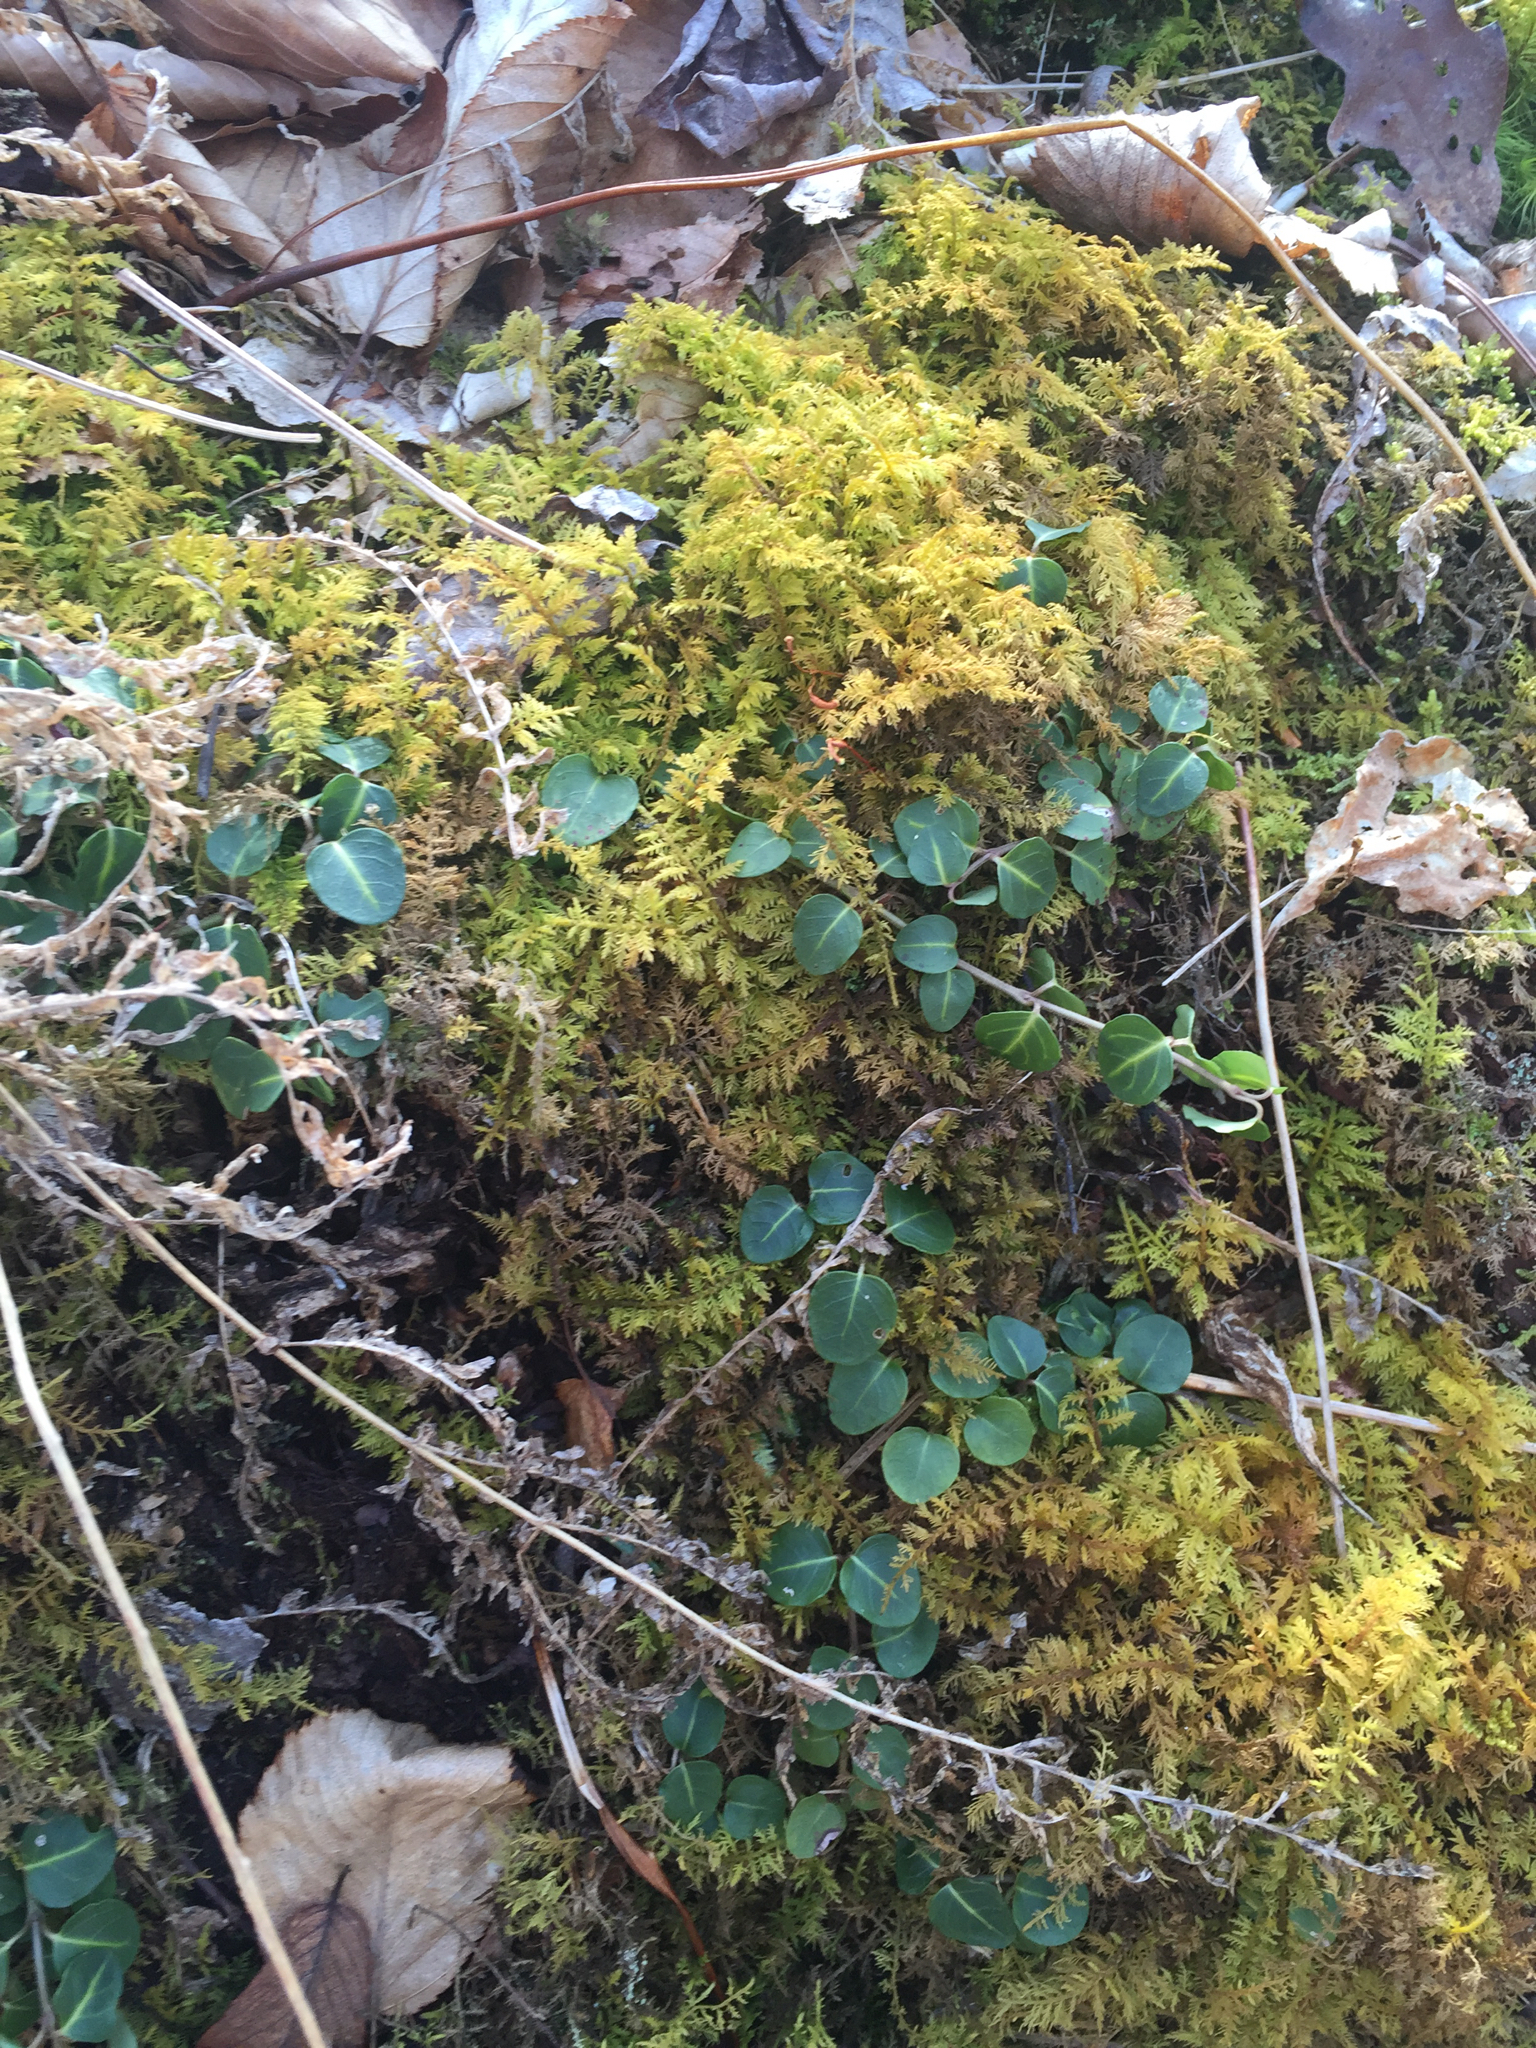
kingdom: Plantae
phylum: Tracheophyta
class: Magnoliopsida
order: Gentianales
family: Rubiaceae
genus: Mitchella
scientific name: Mitchella repens
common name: Partridge-berry
